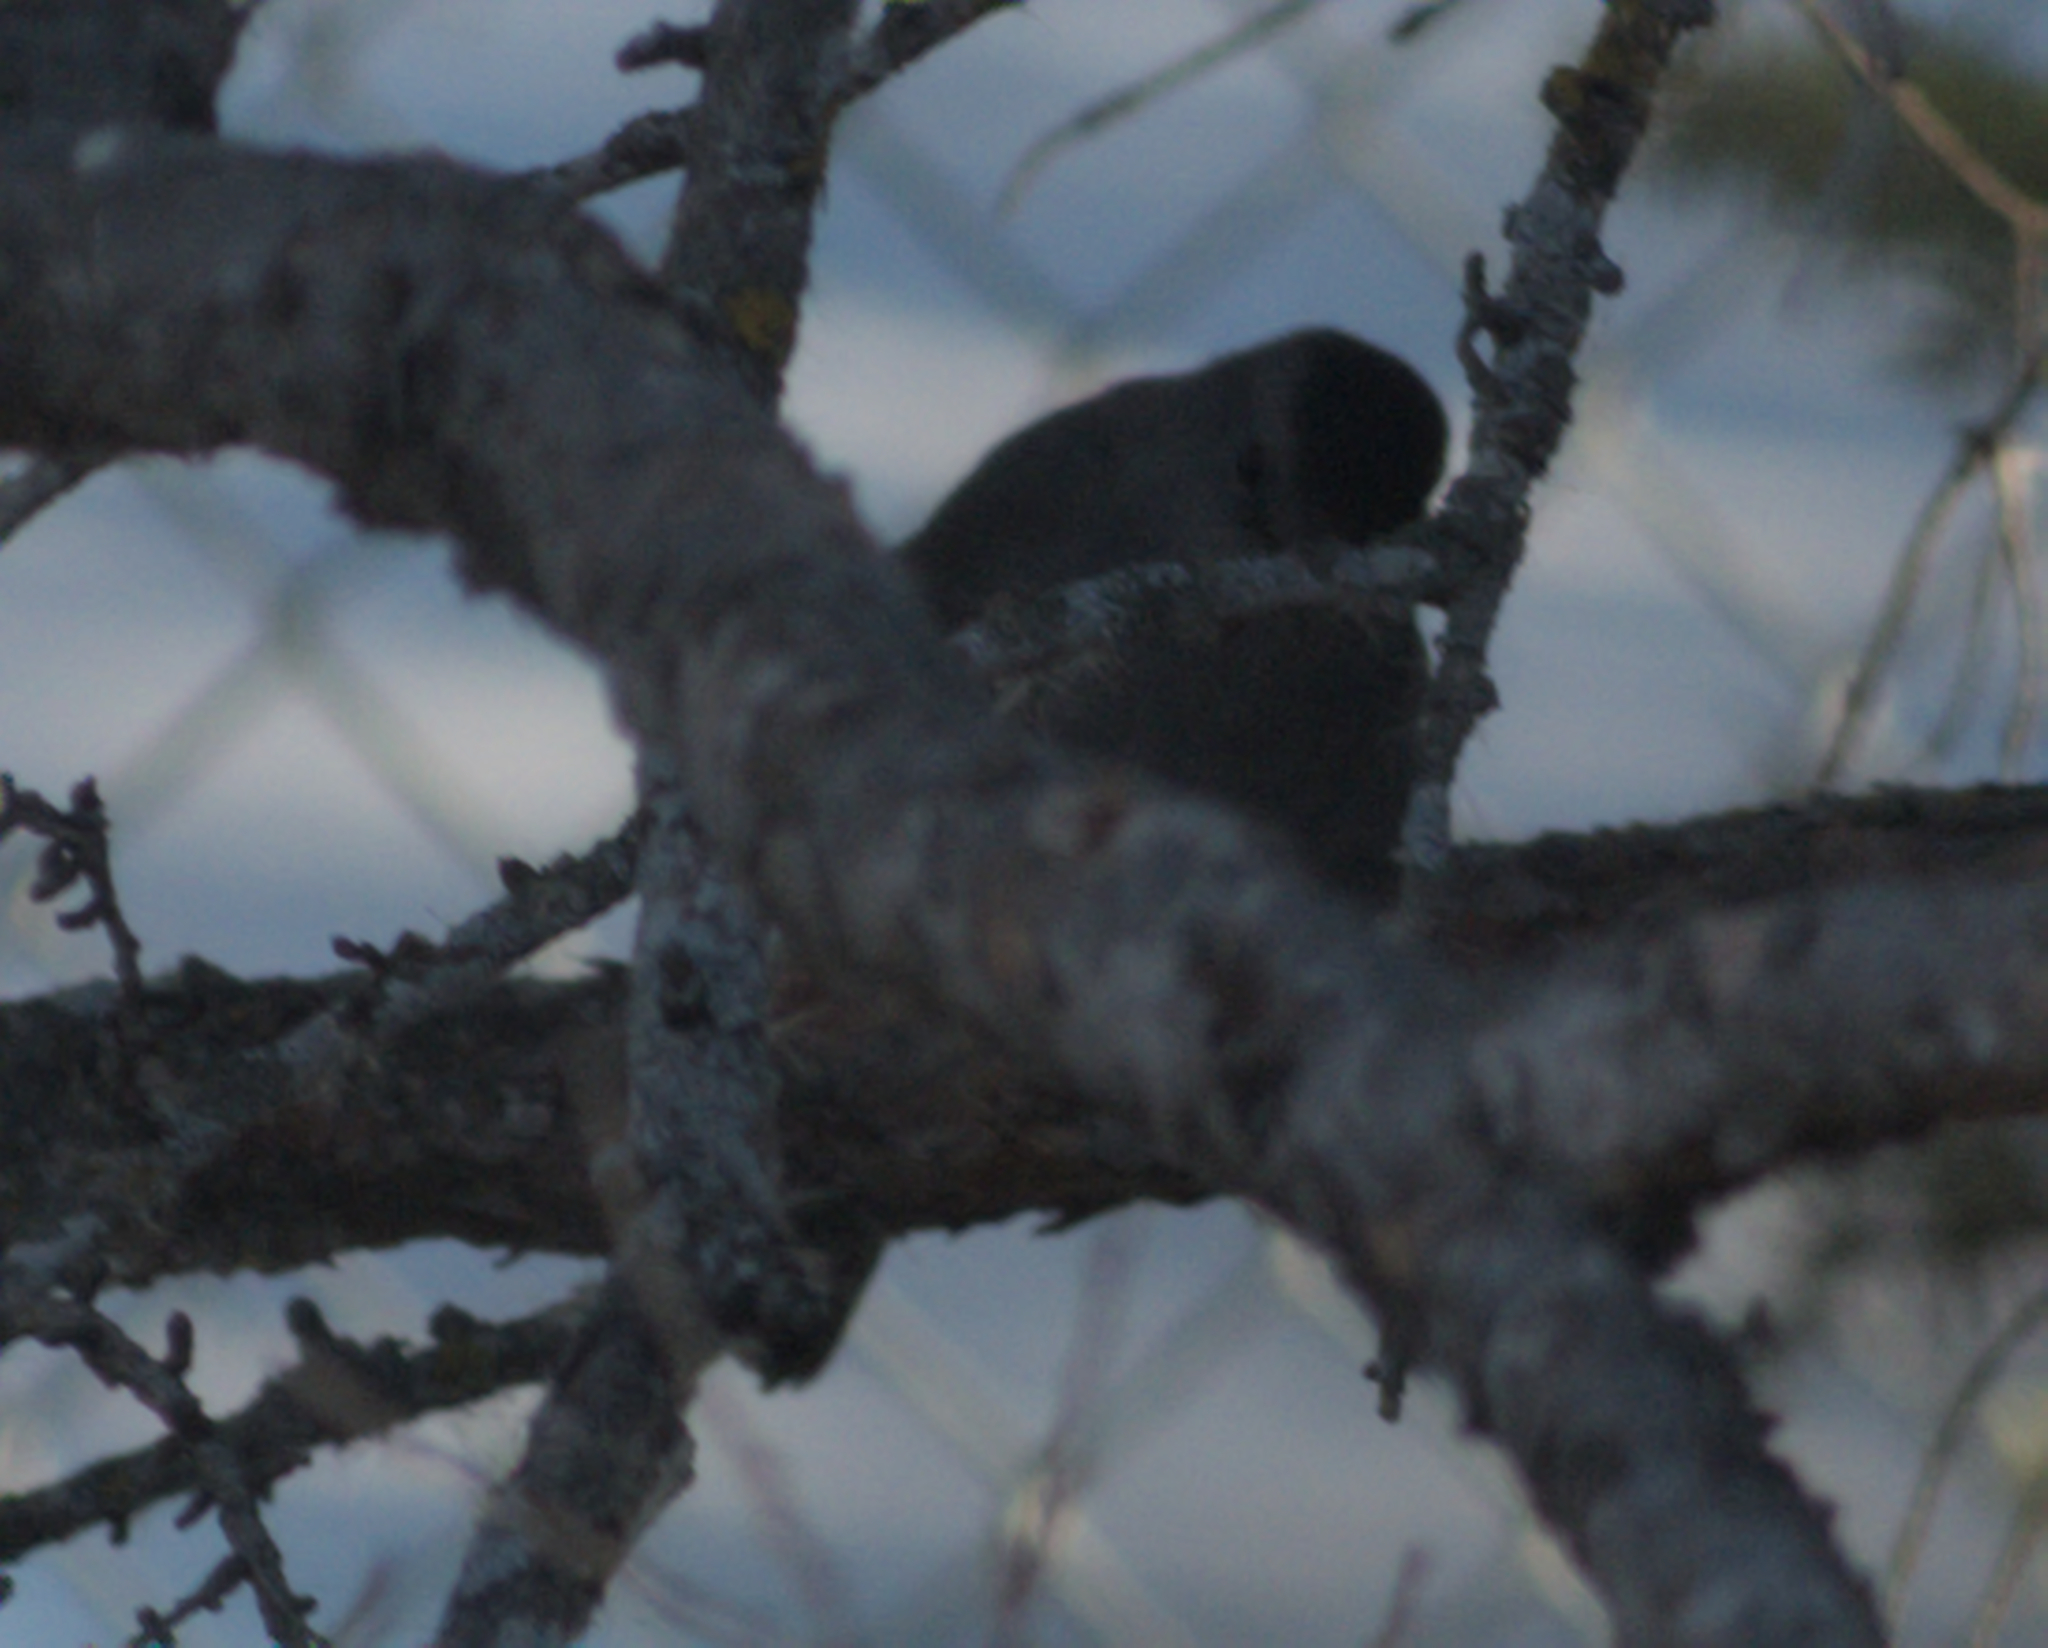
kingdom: Animalia
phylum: Chordata
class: Aves
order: Passeriformes
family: Mimidae
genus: Dumetella
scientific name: Dumetella carolinensis
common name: Gray catbird
